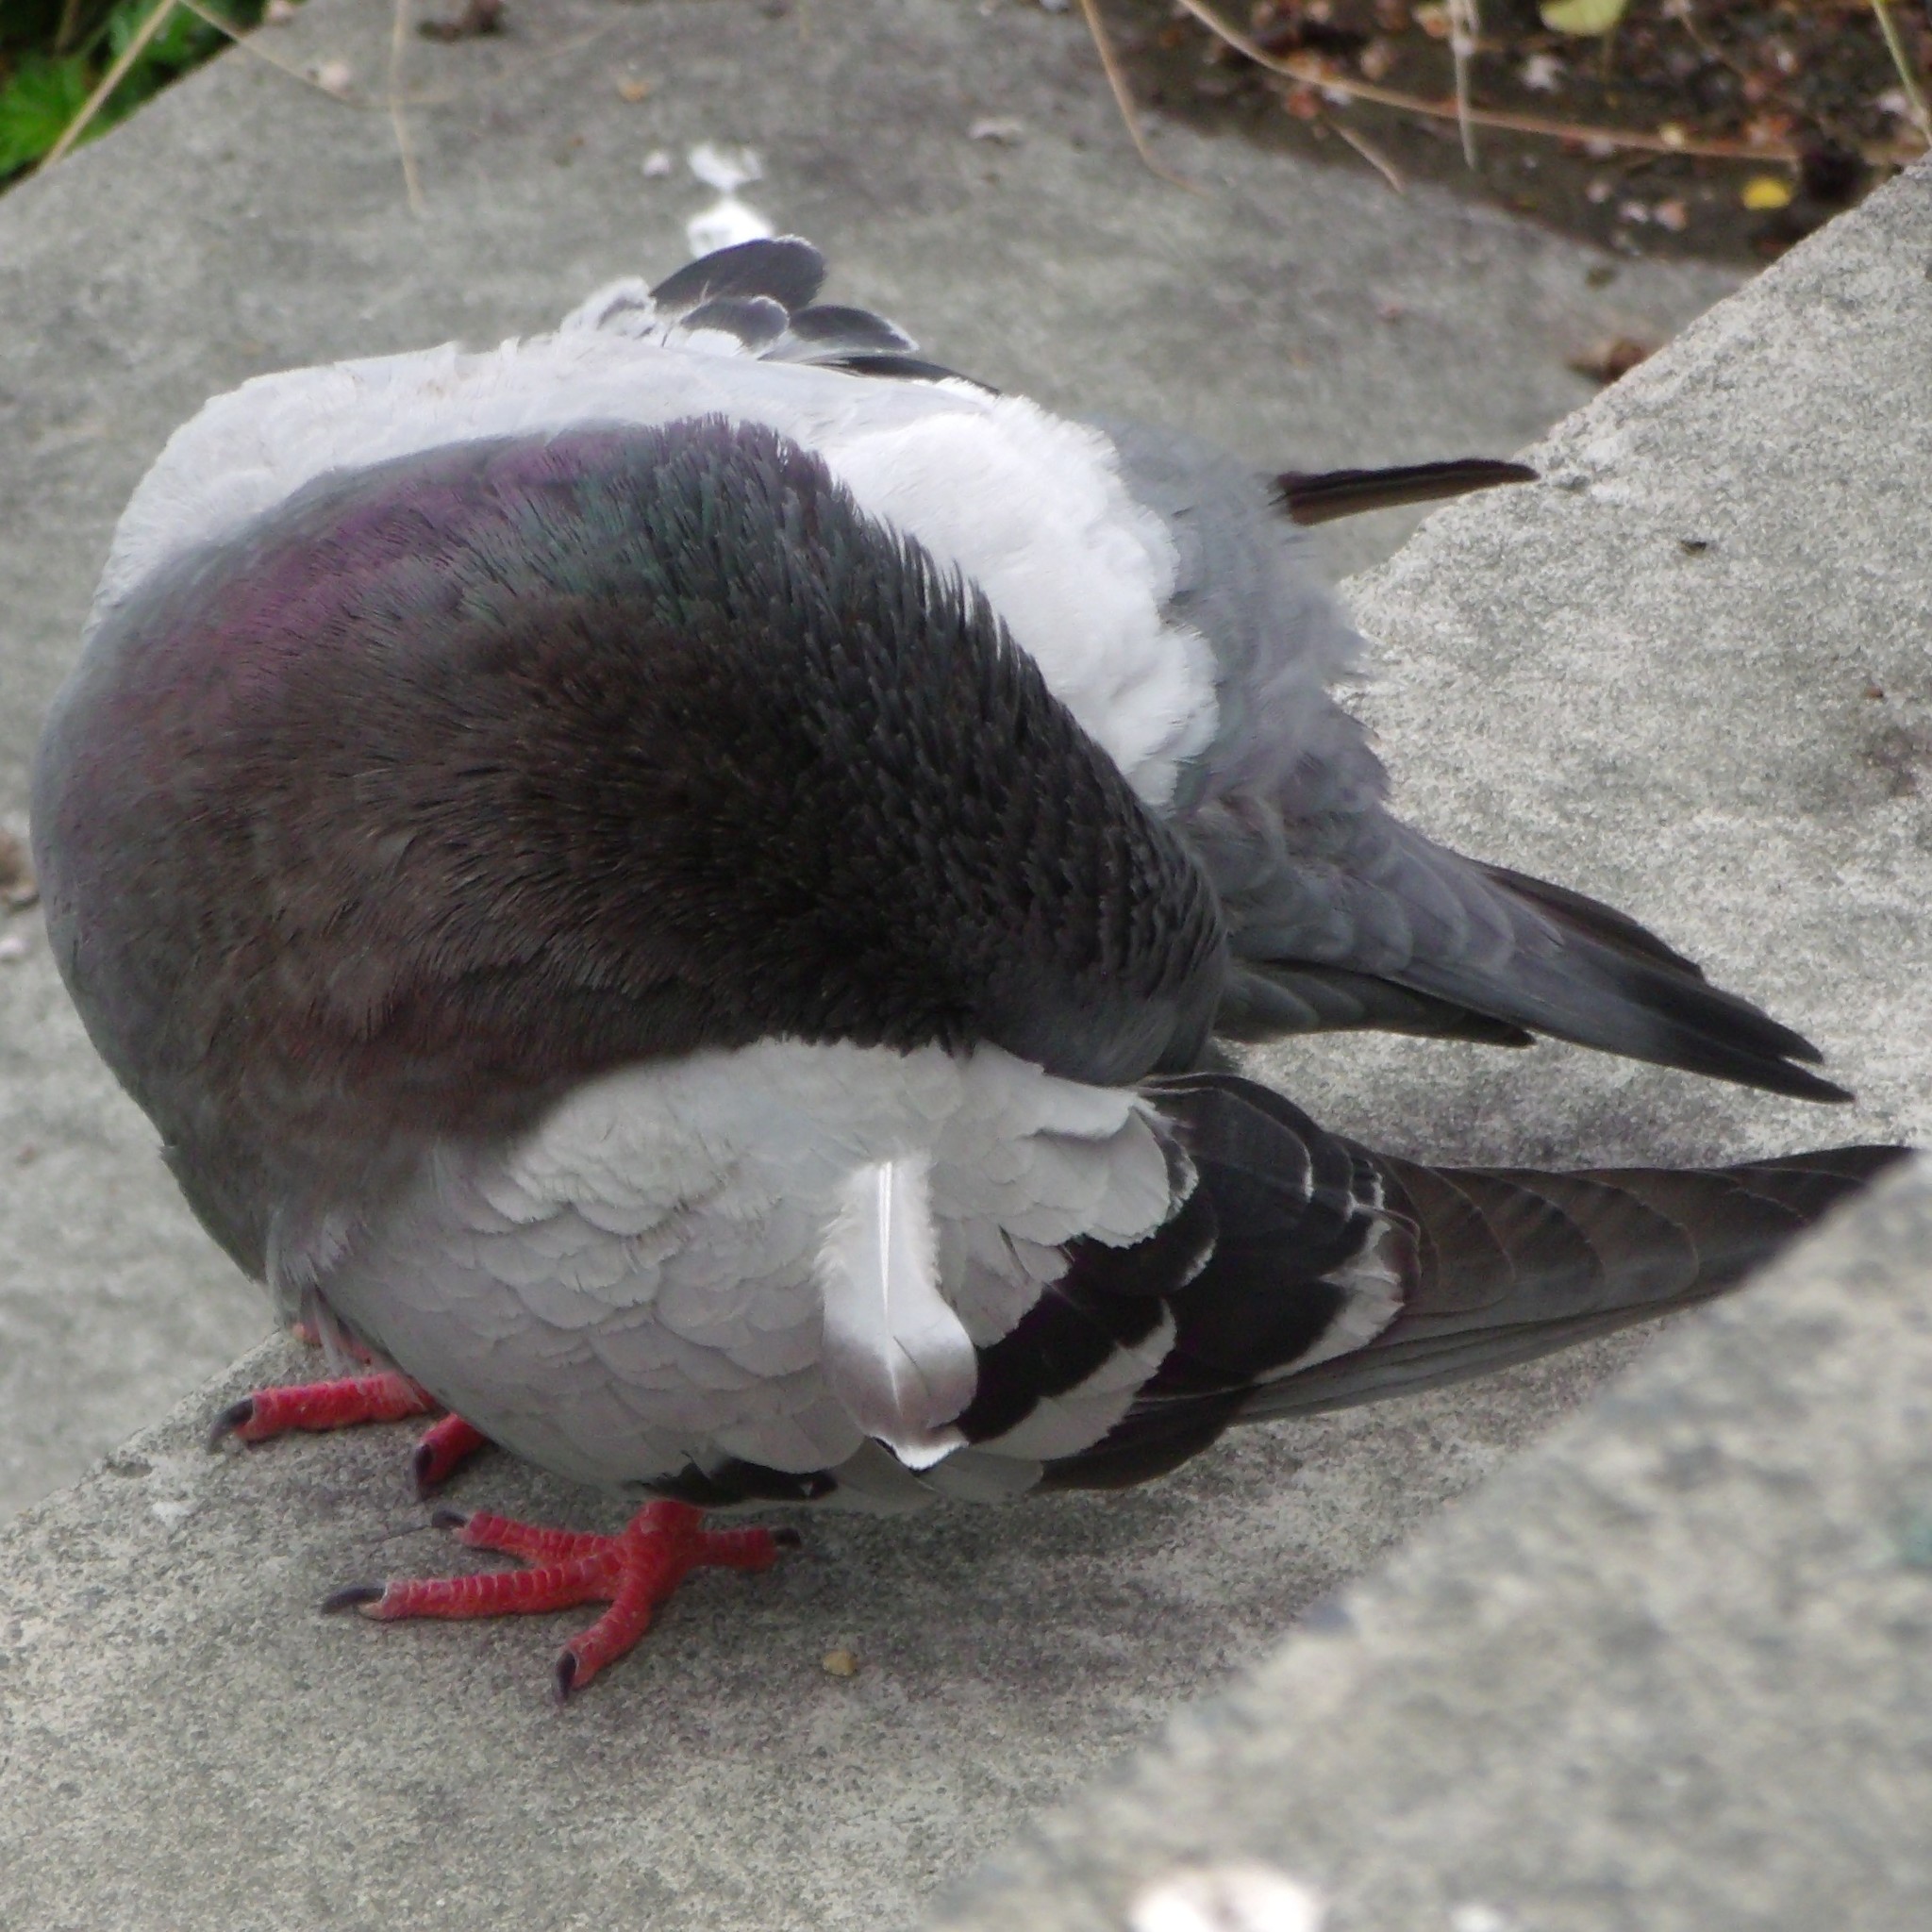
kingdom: Animalia
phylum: Chordata
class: Aves
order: Columbiformes
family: Columbidae
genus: Columba
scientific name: Columba livia
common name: Rock pigeon
